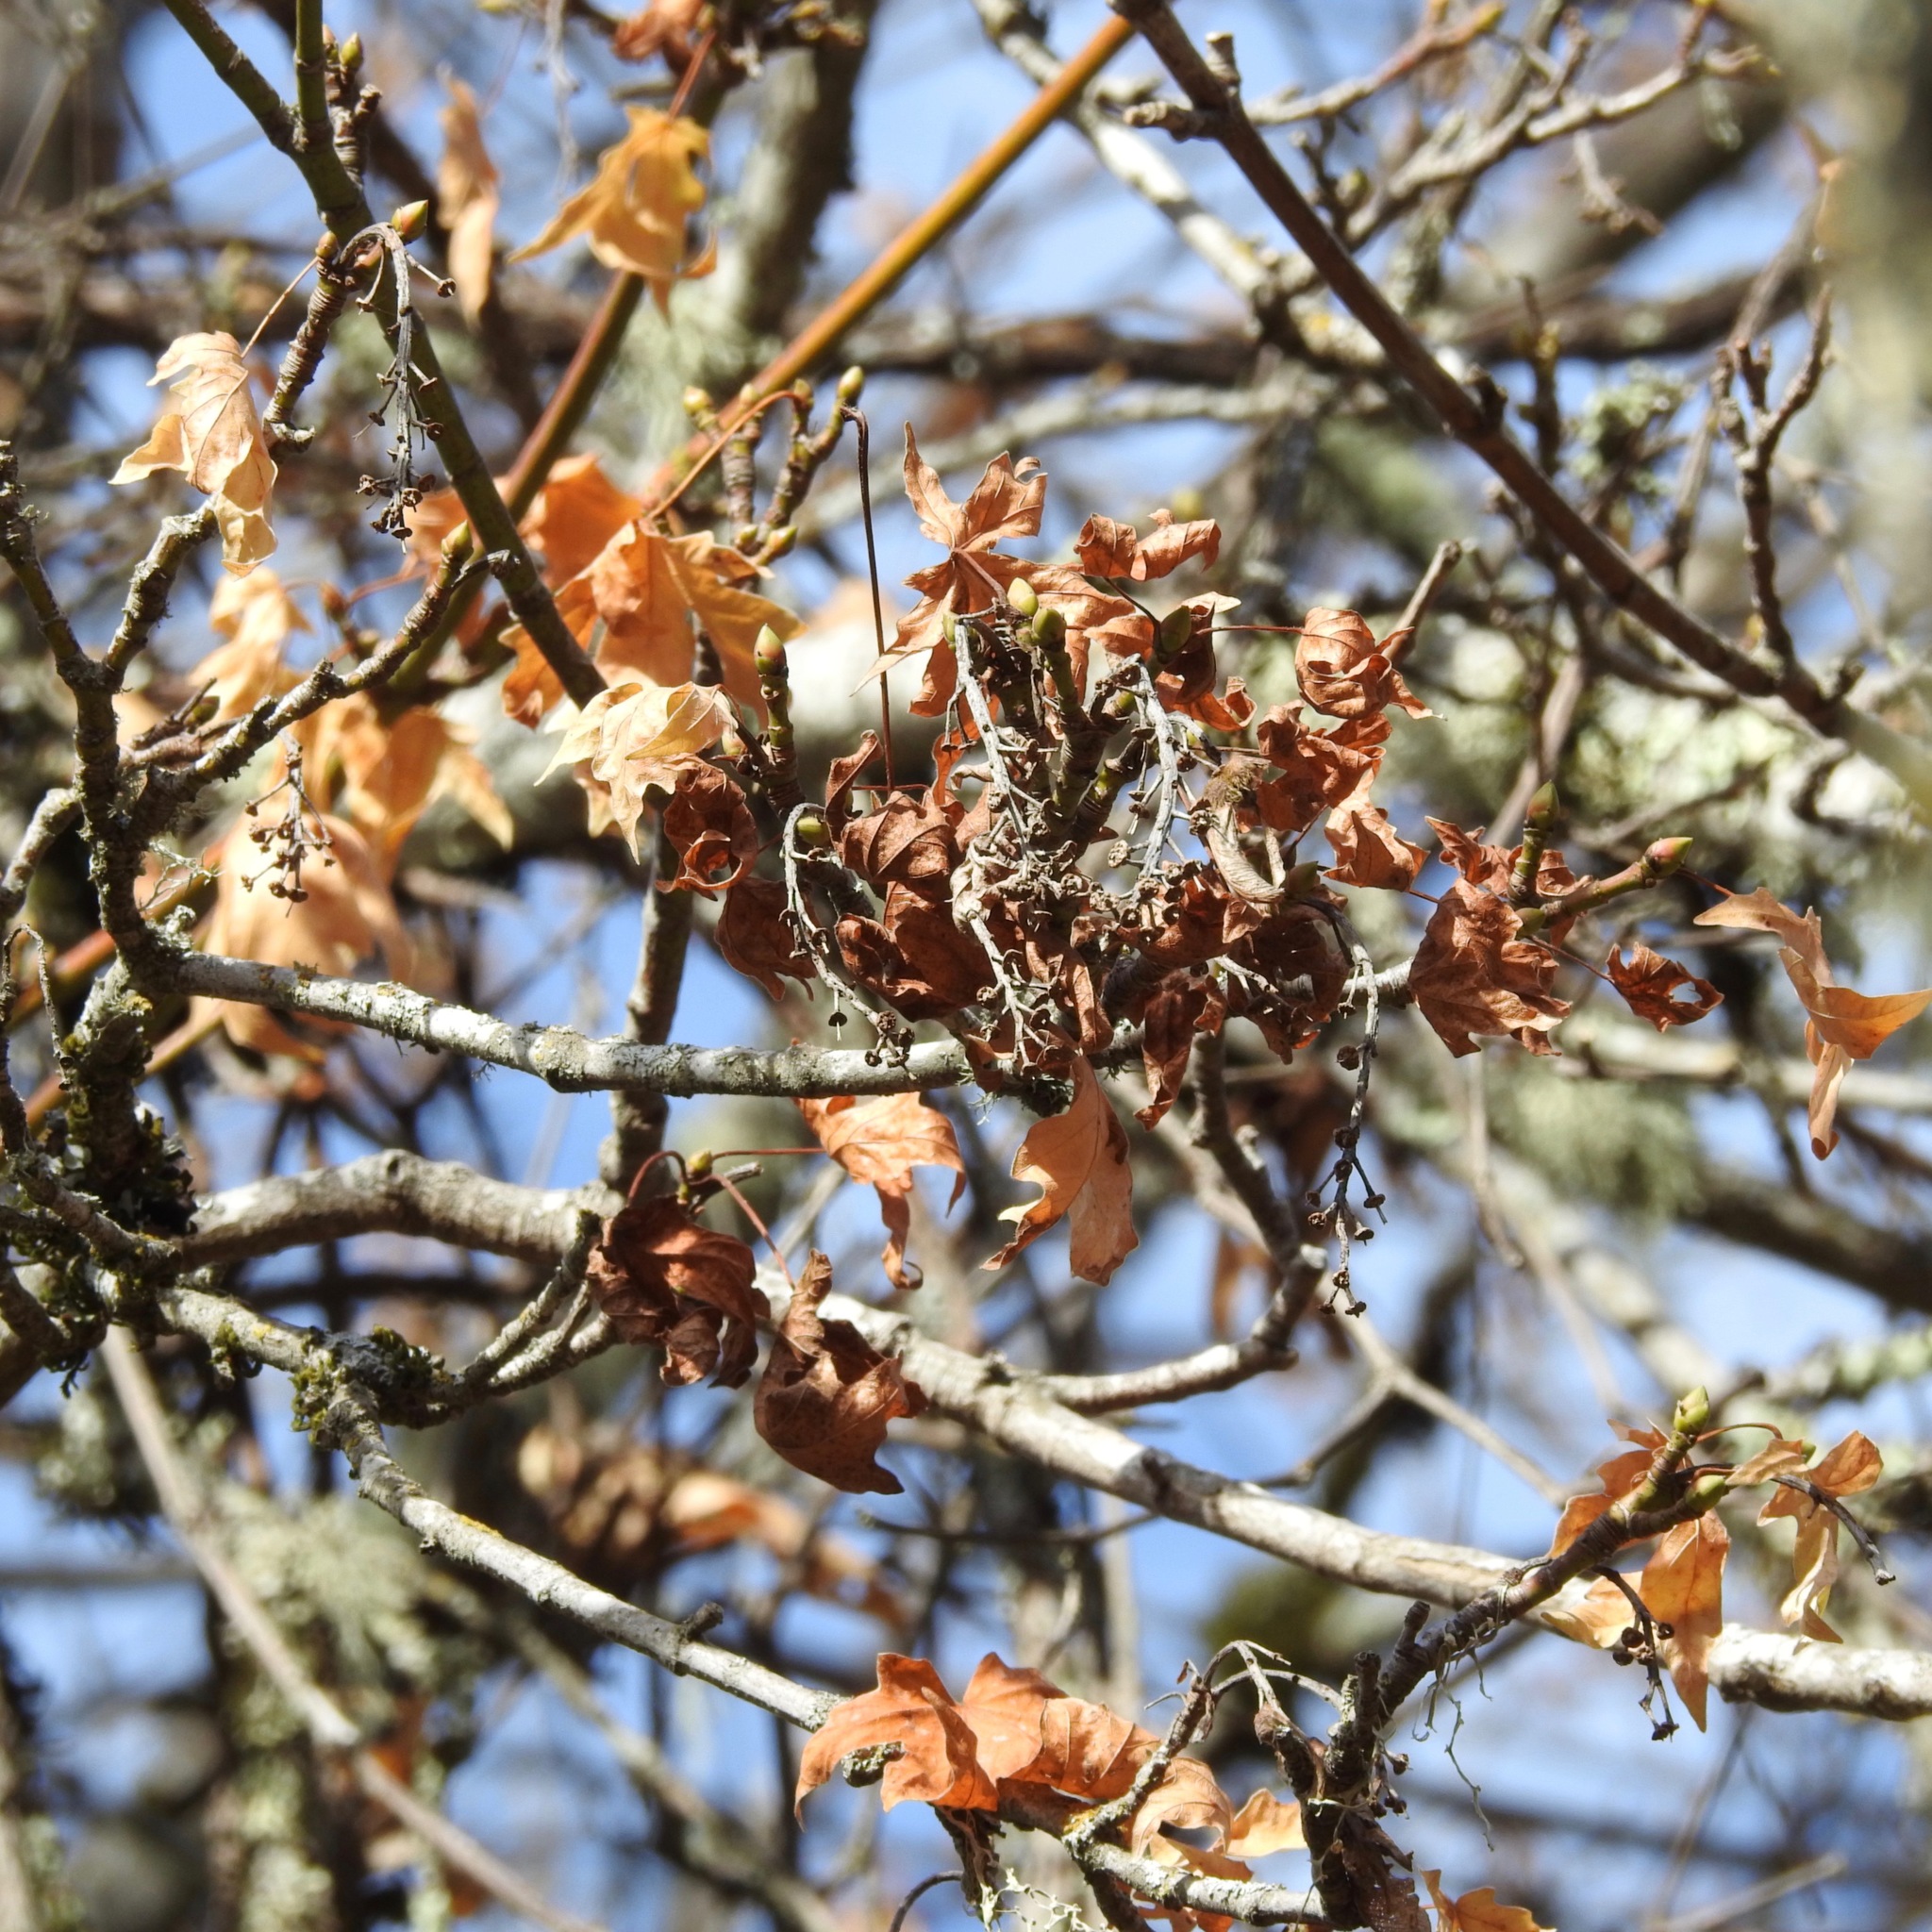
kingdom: Plantae
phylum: Tracheophyta
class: Magnoliopsida
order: Sapindales
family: Sapindaceae
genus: Acer
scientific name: Acer macrophyllum
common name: Oregon maple
